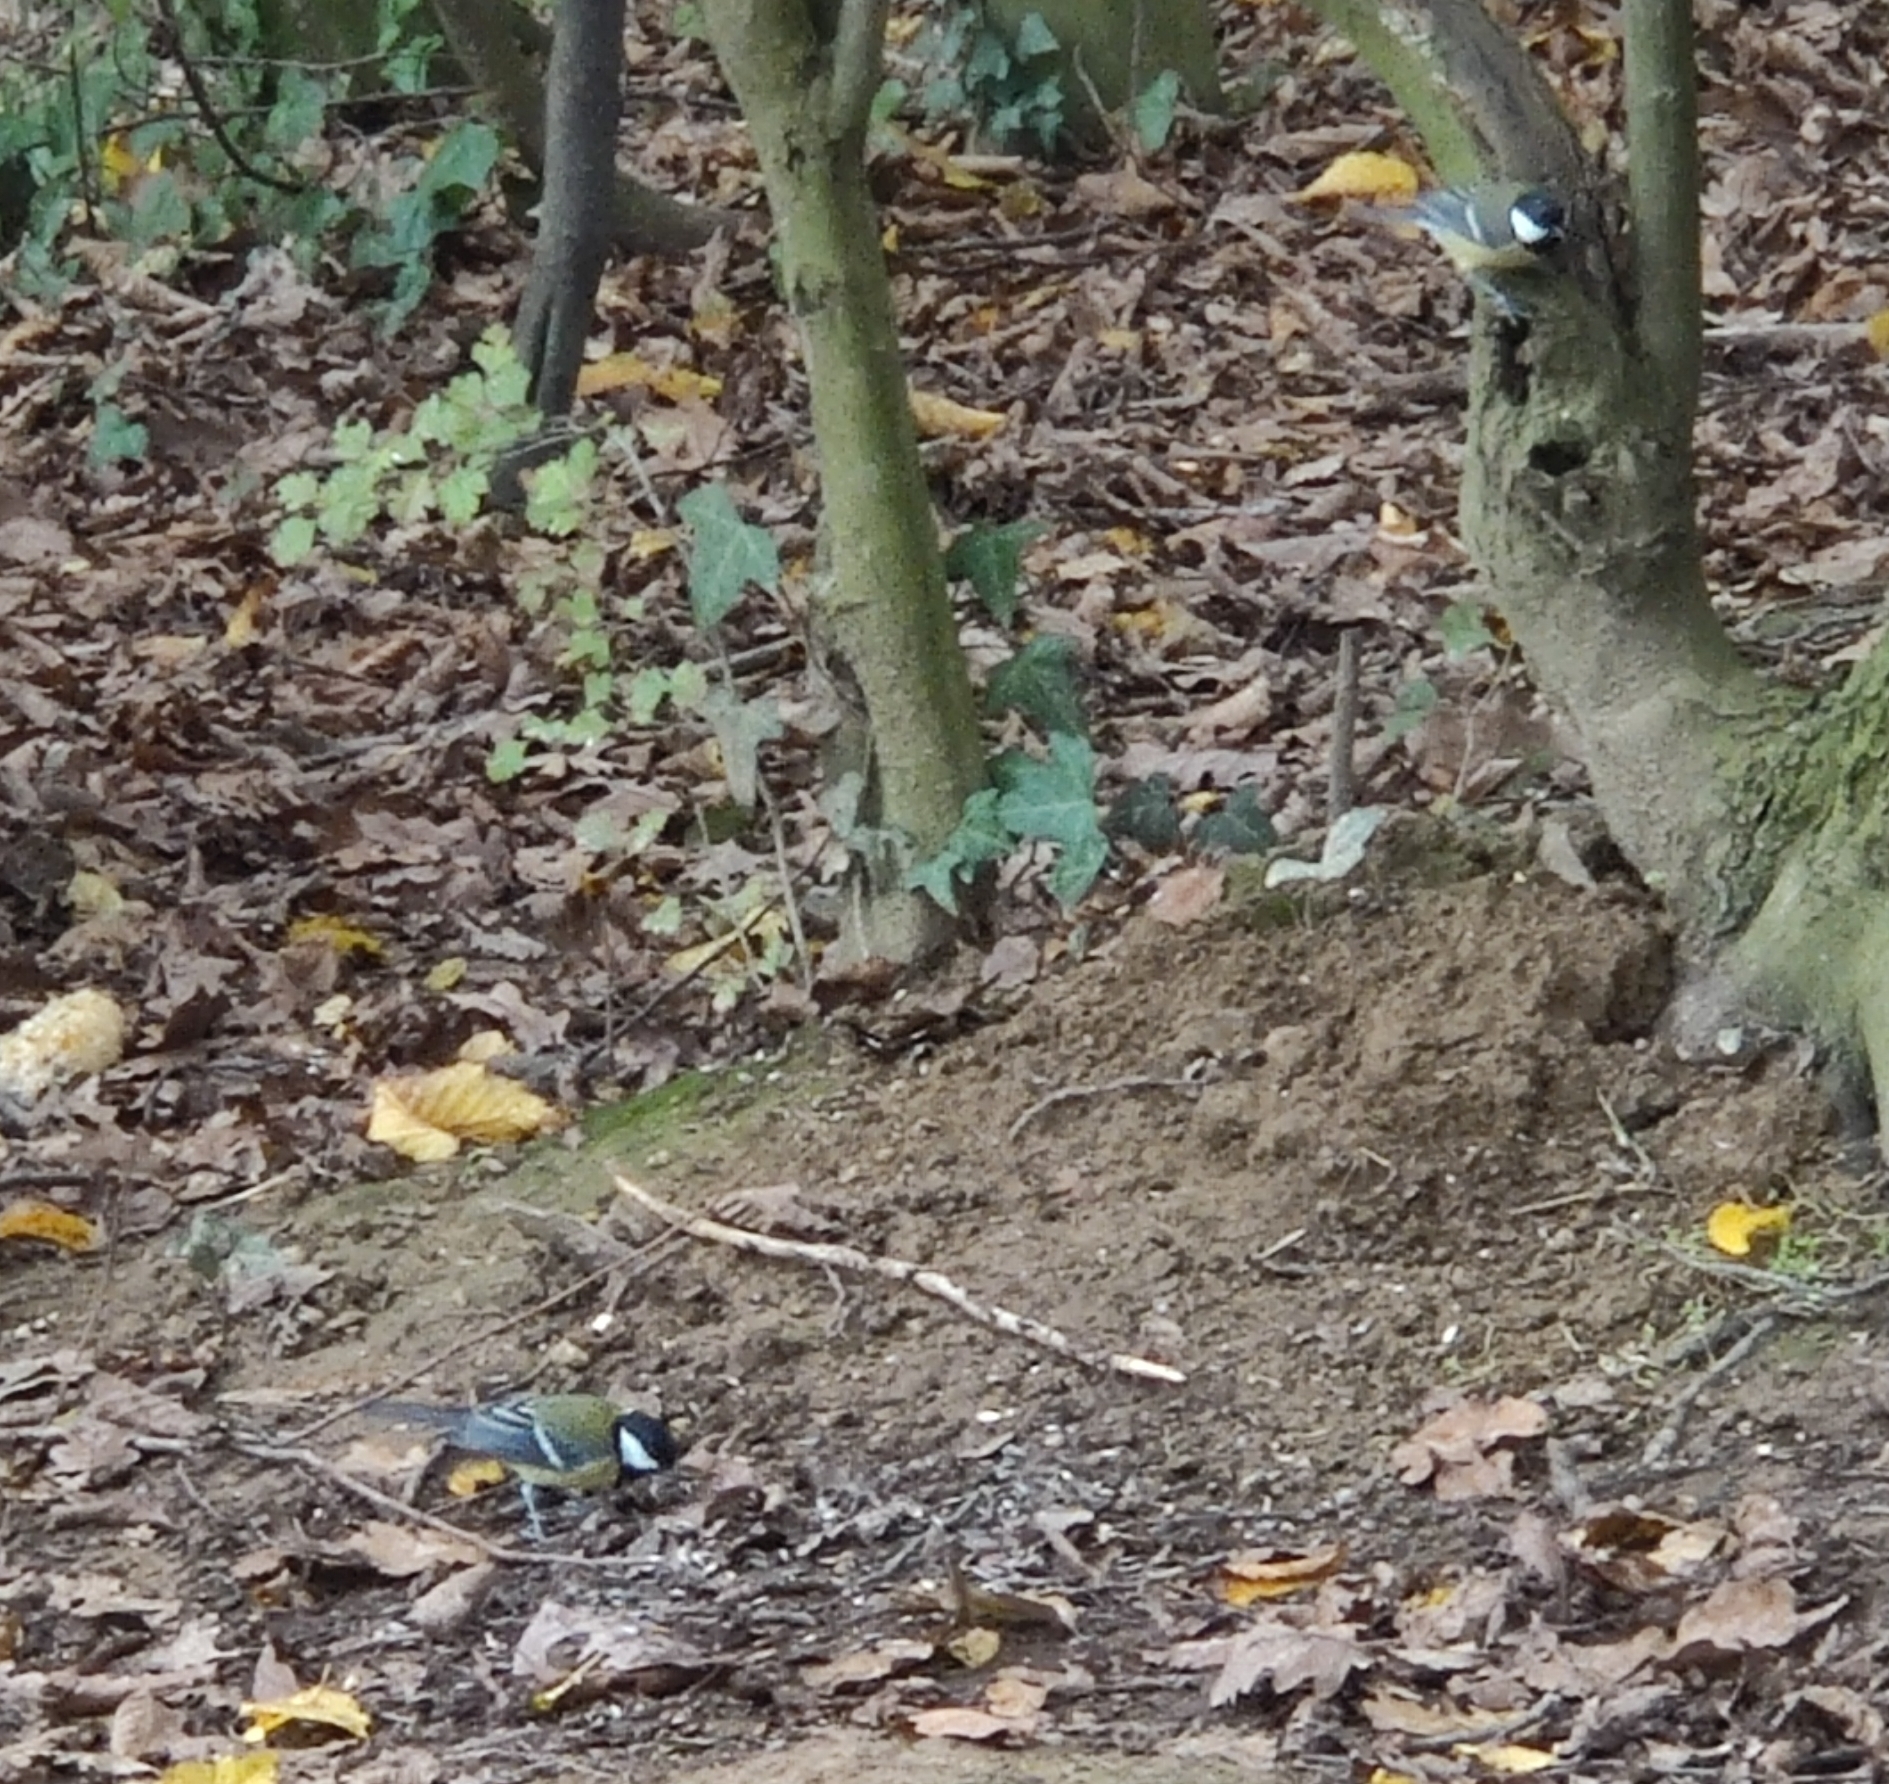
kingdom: Animalia
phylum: Chordata
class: Aves
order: Passeriformes
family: Paridae
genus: Parus
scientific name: Parus major
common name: Great tit
